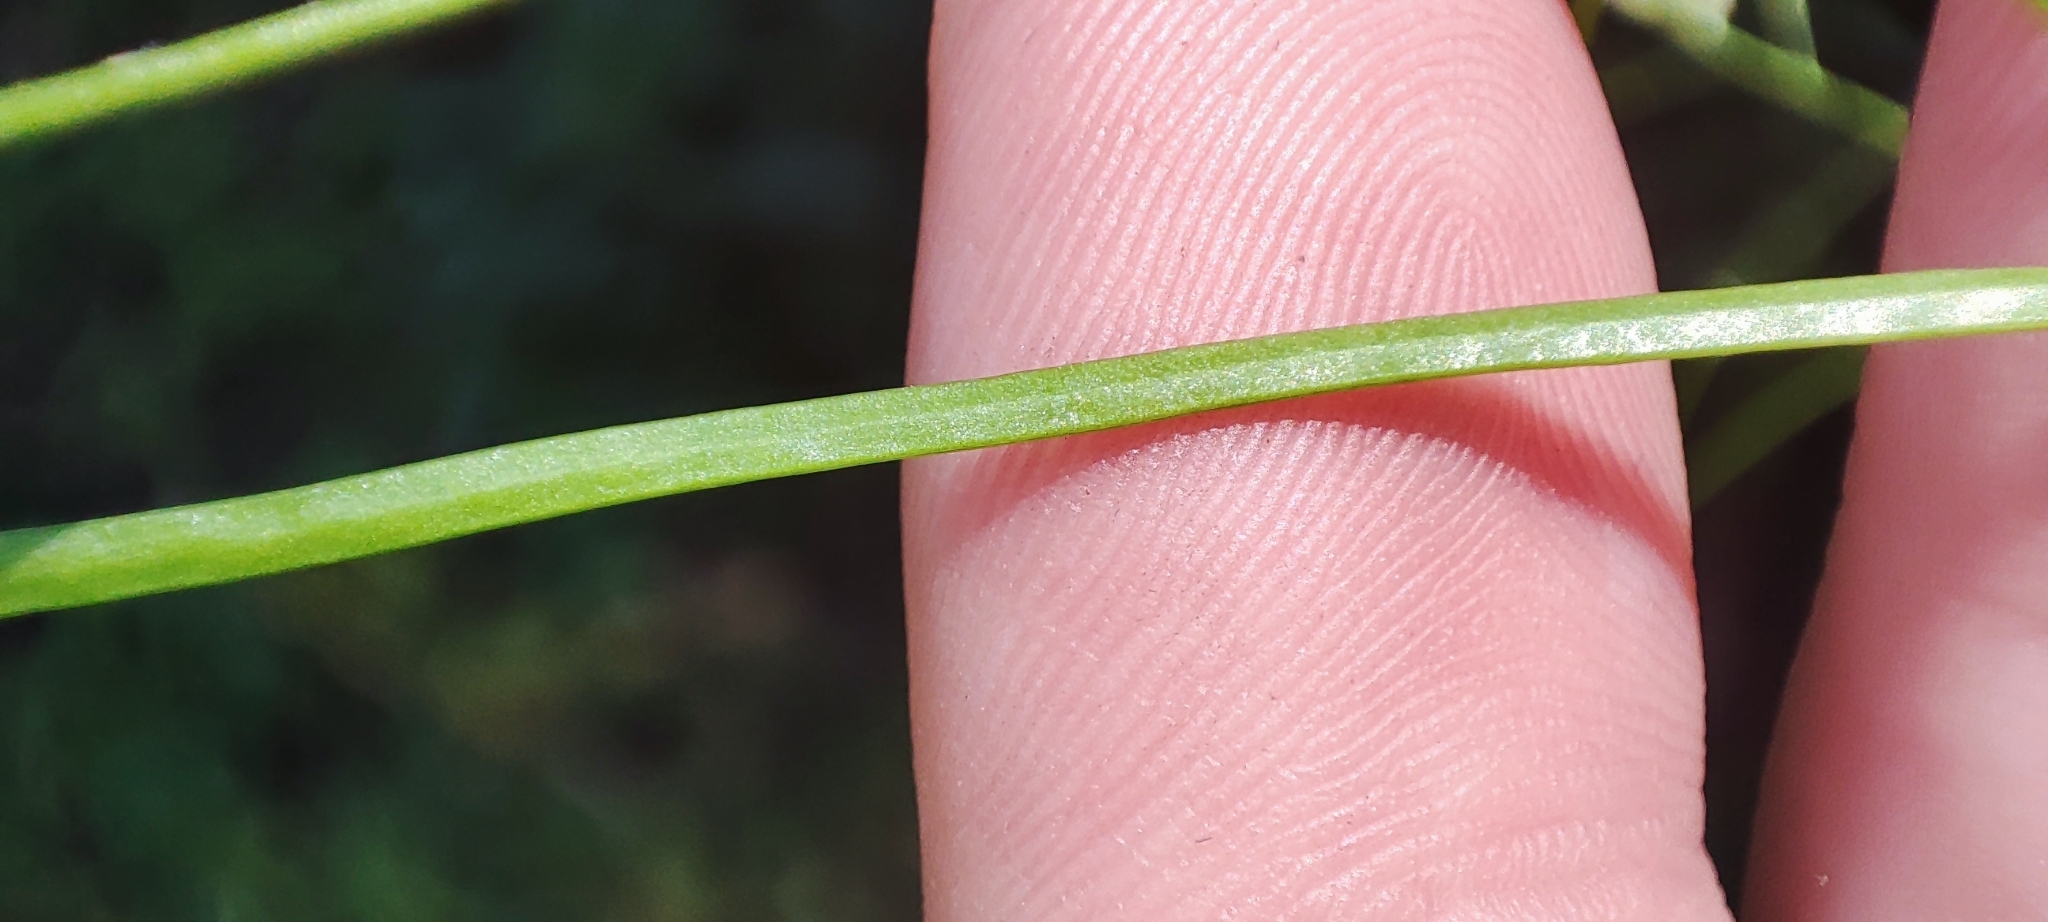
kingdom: Plantae
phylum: Tracheophyta
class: Magnoliopsida
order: Brassicales
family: Brassicaceae
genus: Catolobus
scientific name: Catolobus pendulus
